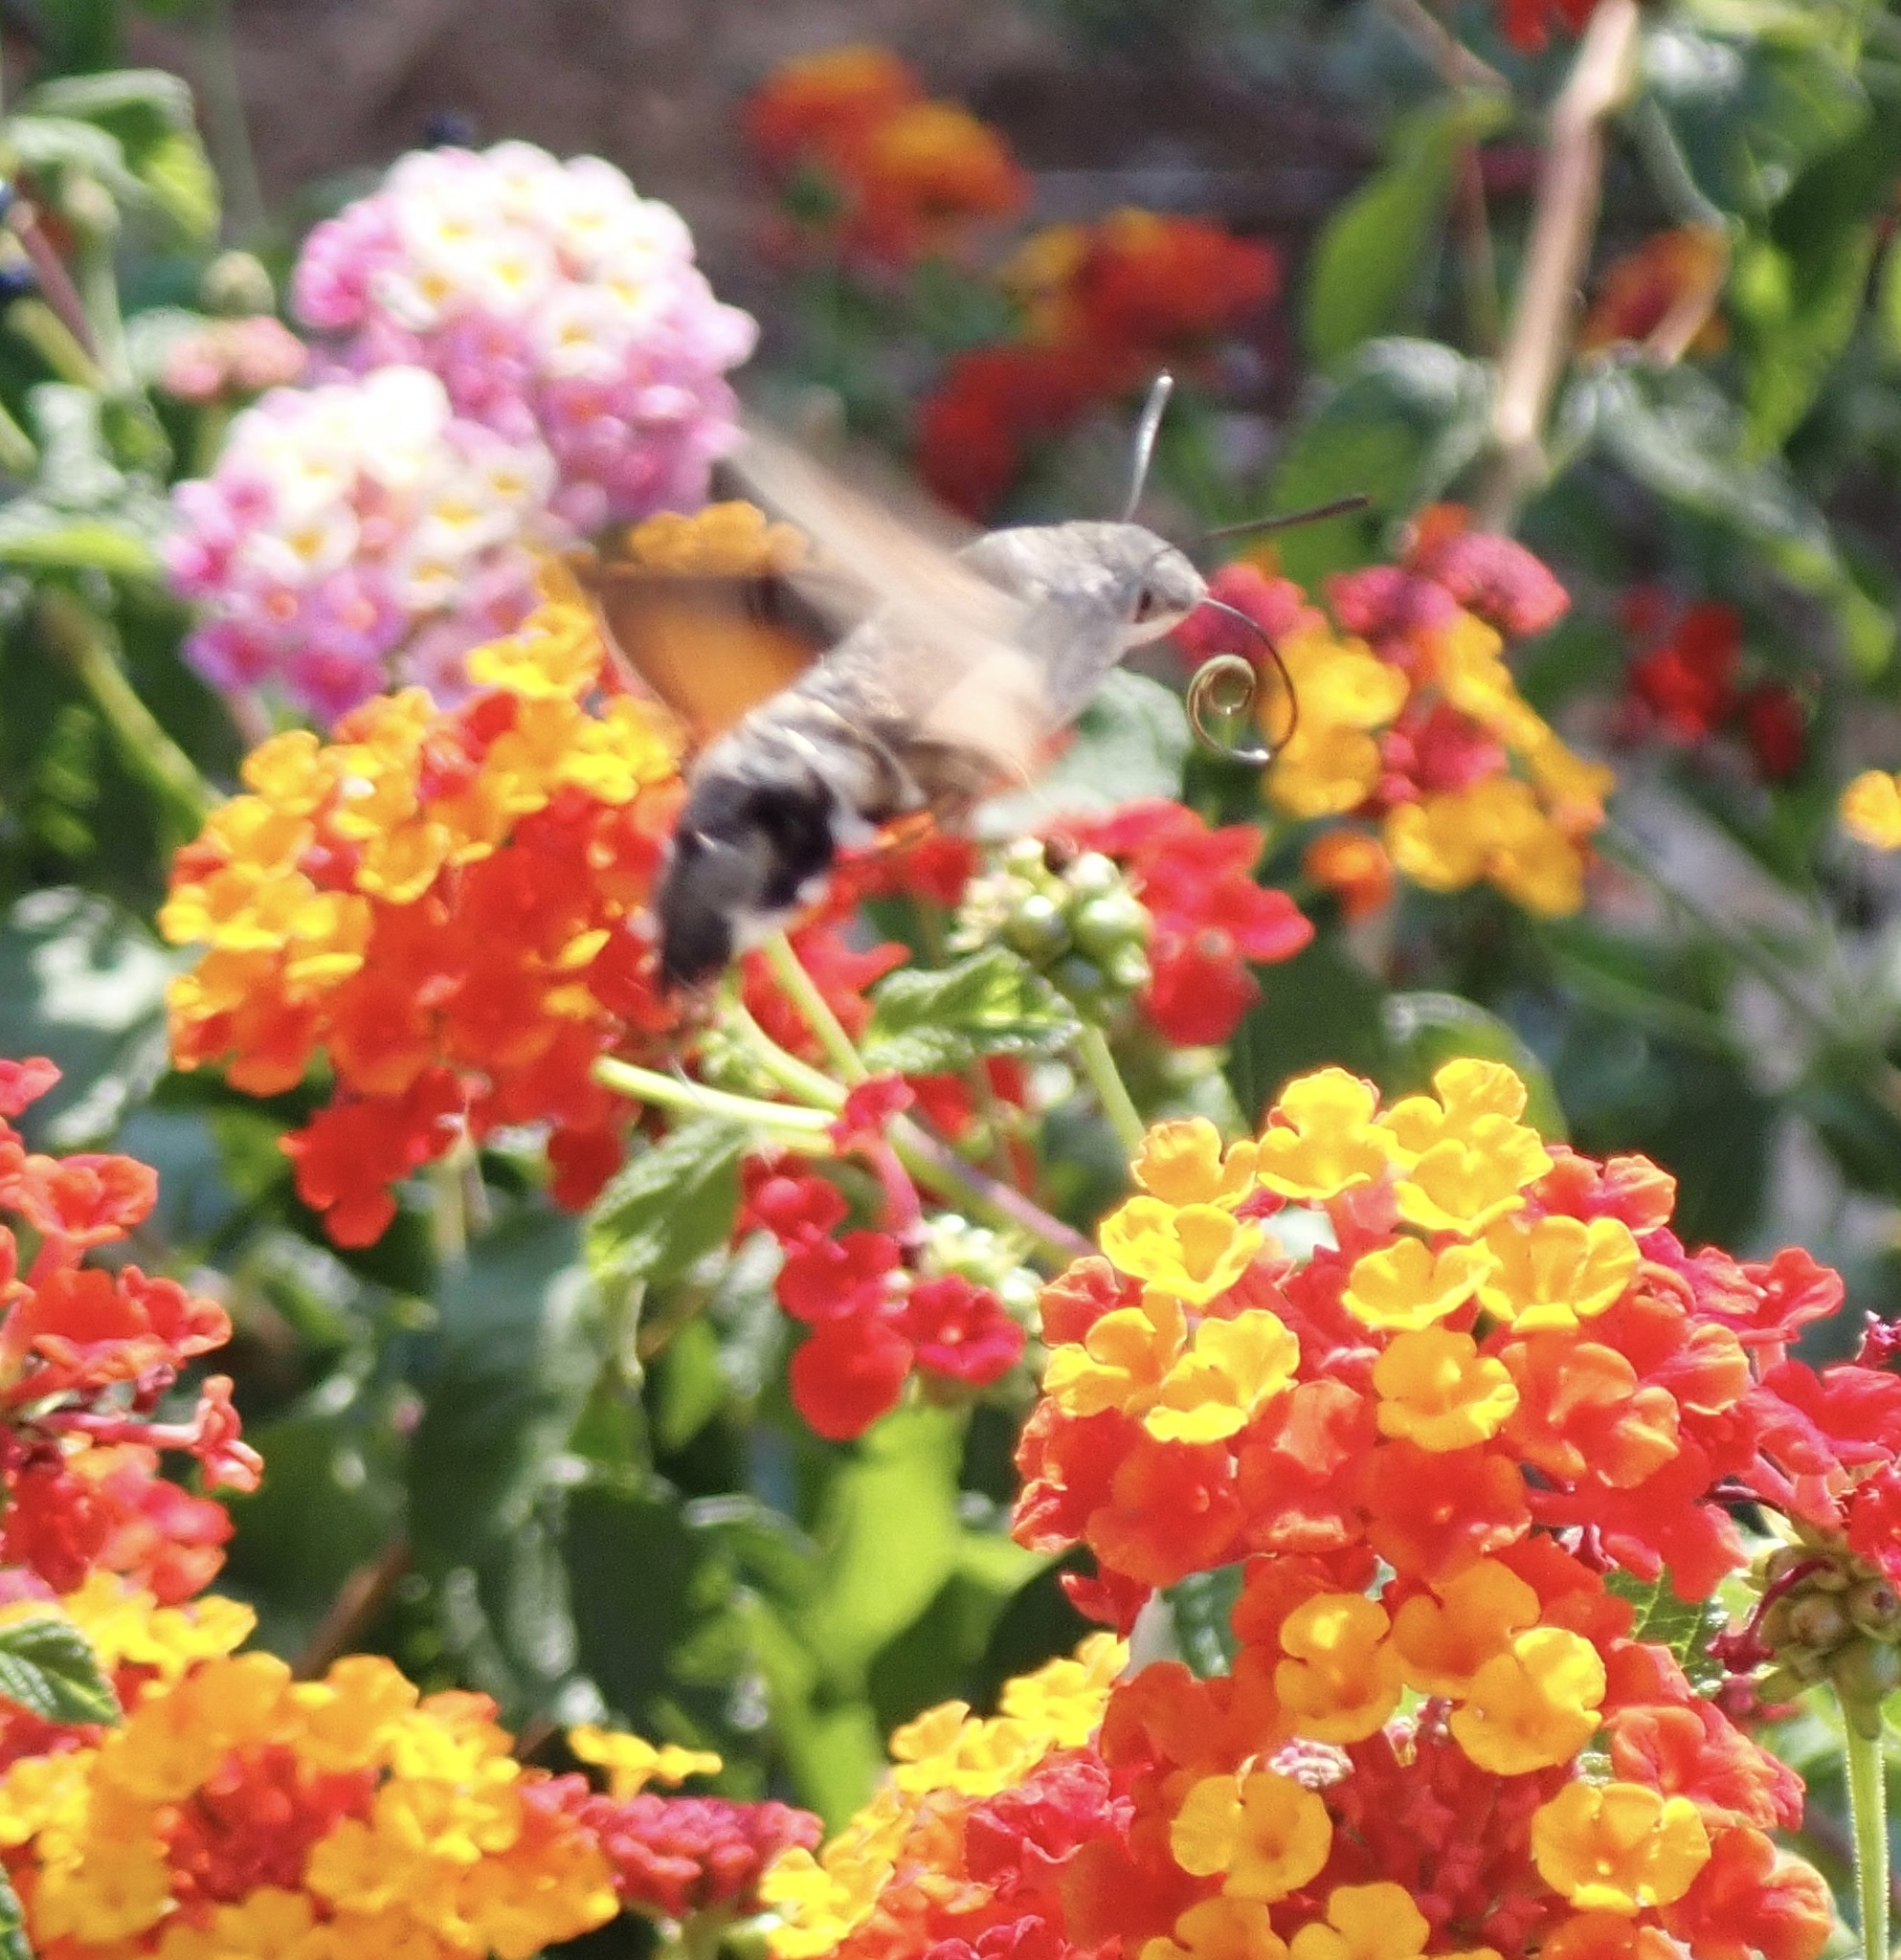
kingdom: Animalia
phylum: Arthropoda
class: Insecta
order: Lepidoptera
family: Sphingidae
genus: Macroglossum
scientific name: Macroglossum stellatarum
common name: Humming-bird hawk-moth
